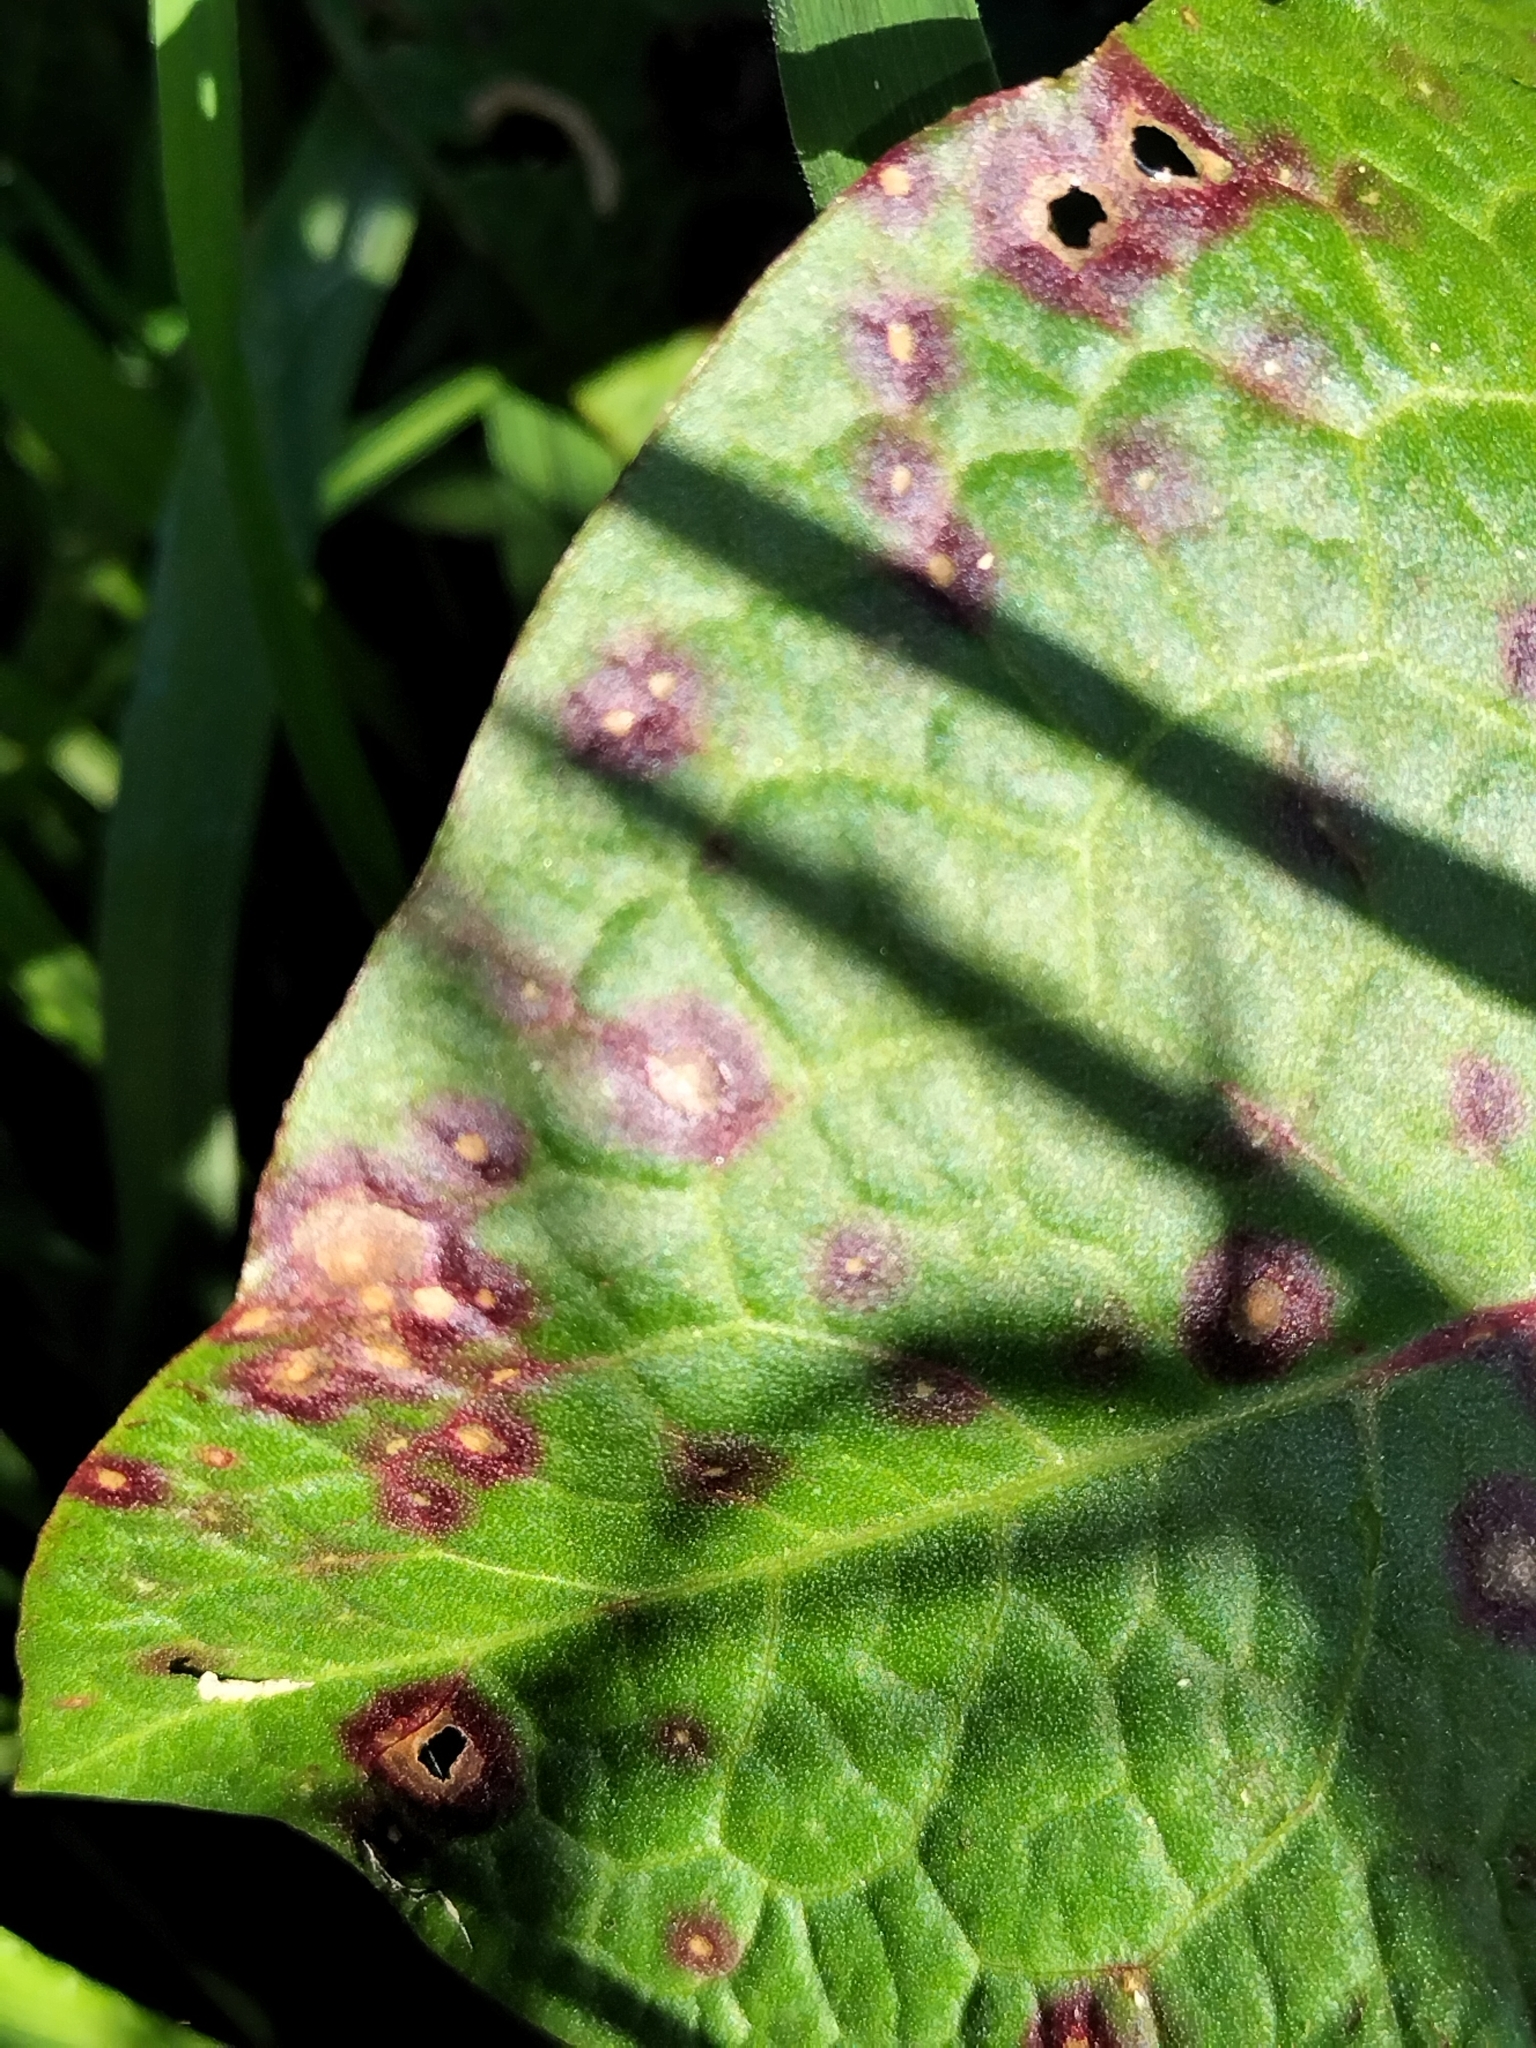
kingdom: Fungi
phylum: Ascomycota
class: Dothideomycetes
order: Mycosphaerellales
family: Mycosphaerellaceae
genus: Ramularia
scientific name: Ramularia rubella
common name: Red dock spot
